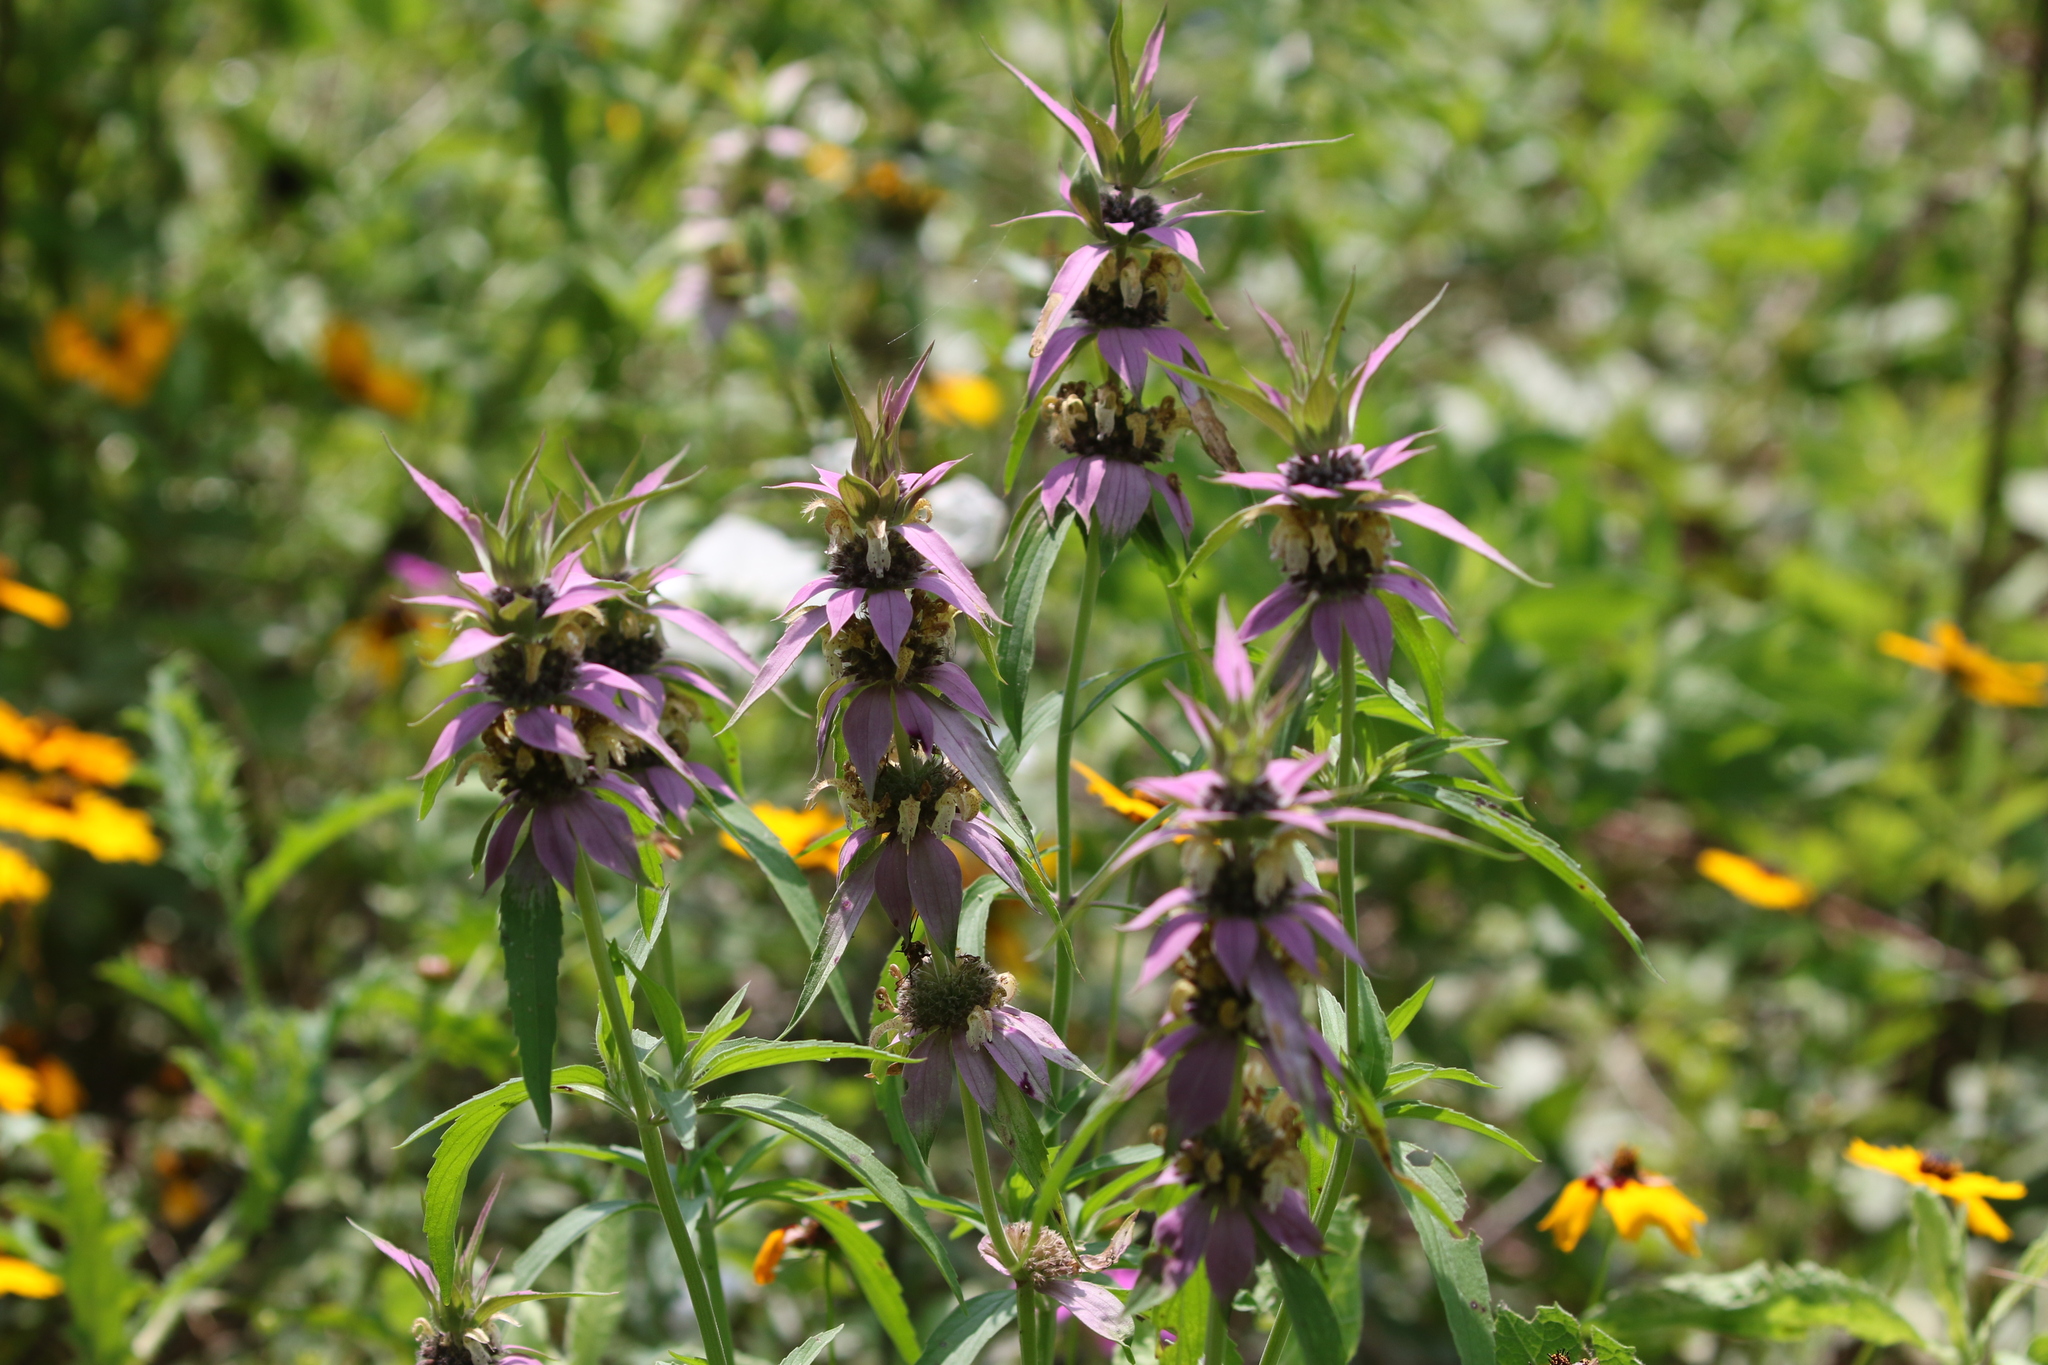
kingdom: Plantae
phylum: Tracheophyta
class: Magnoliopsida
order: Lamiales
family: Lamiaceae
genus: Monarda
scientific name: Monarda punctata
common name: Dotted monarda
